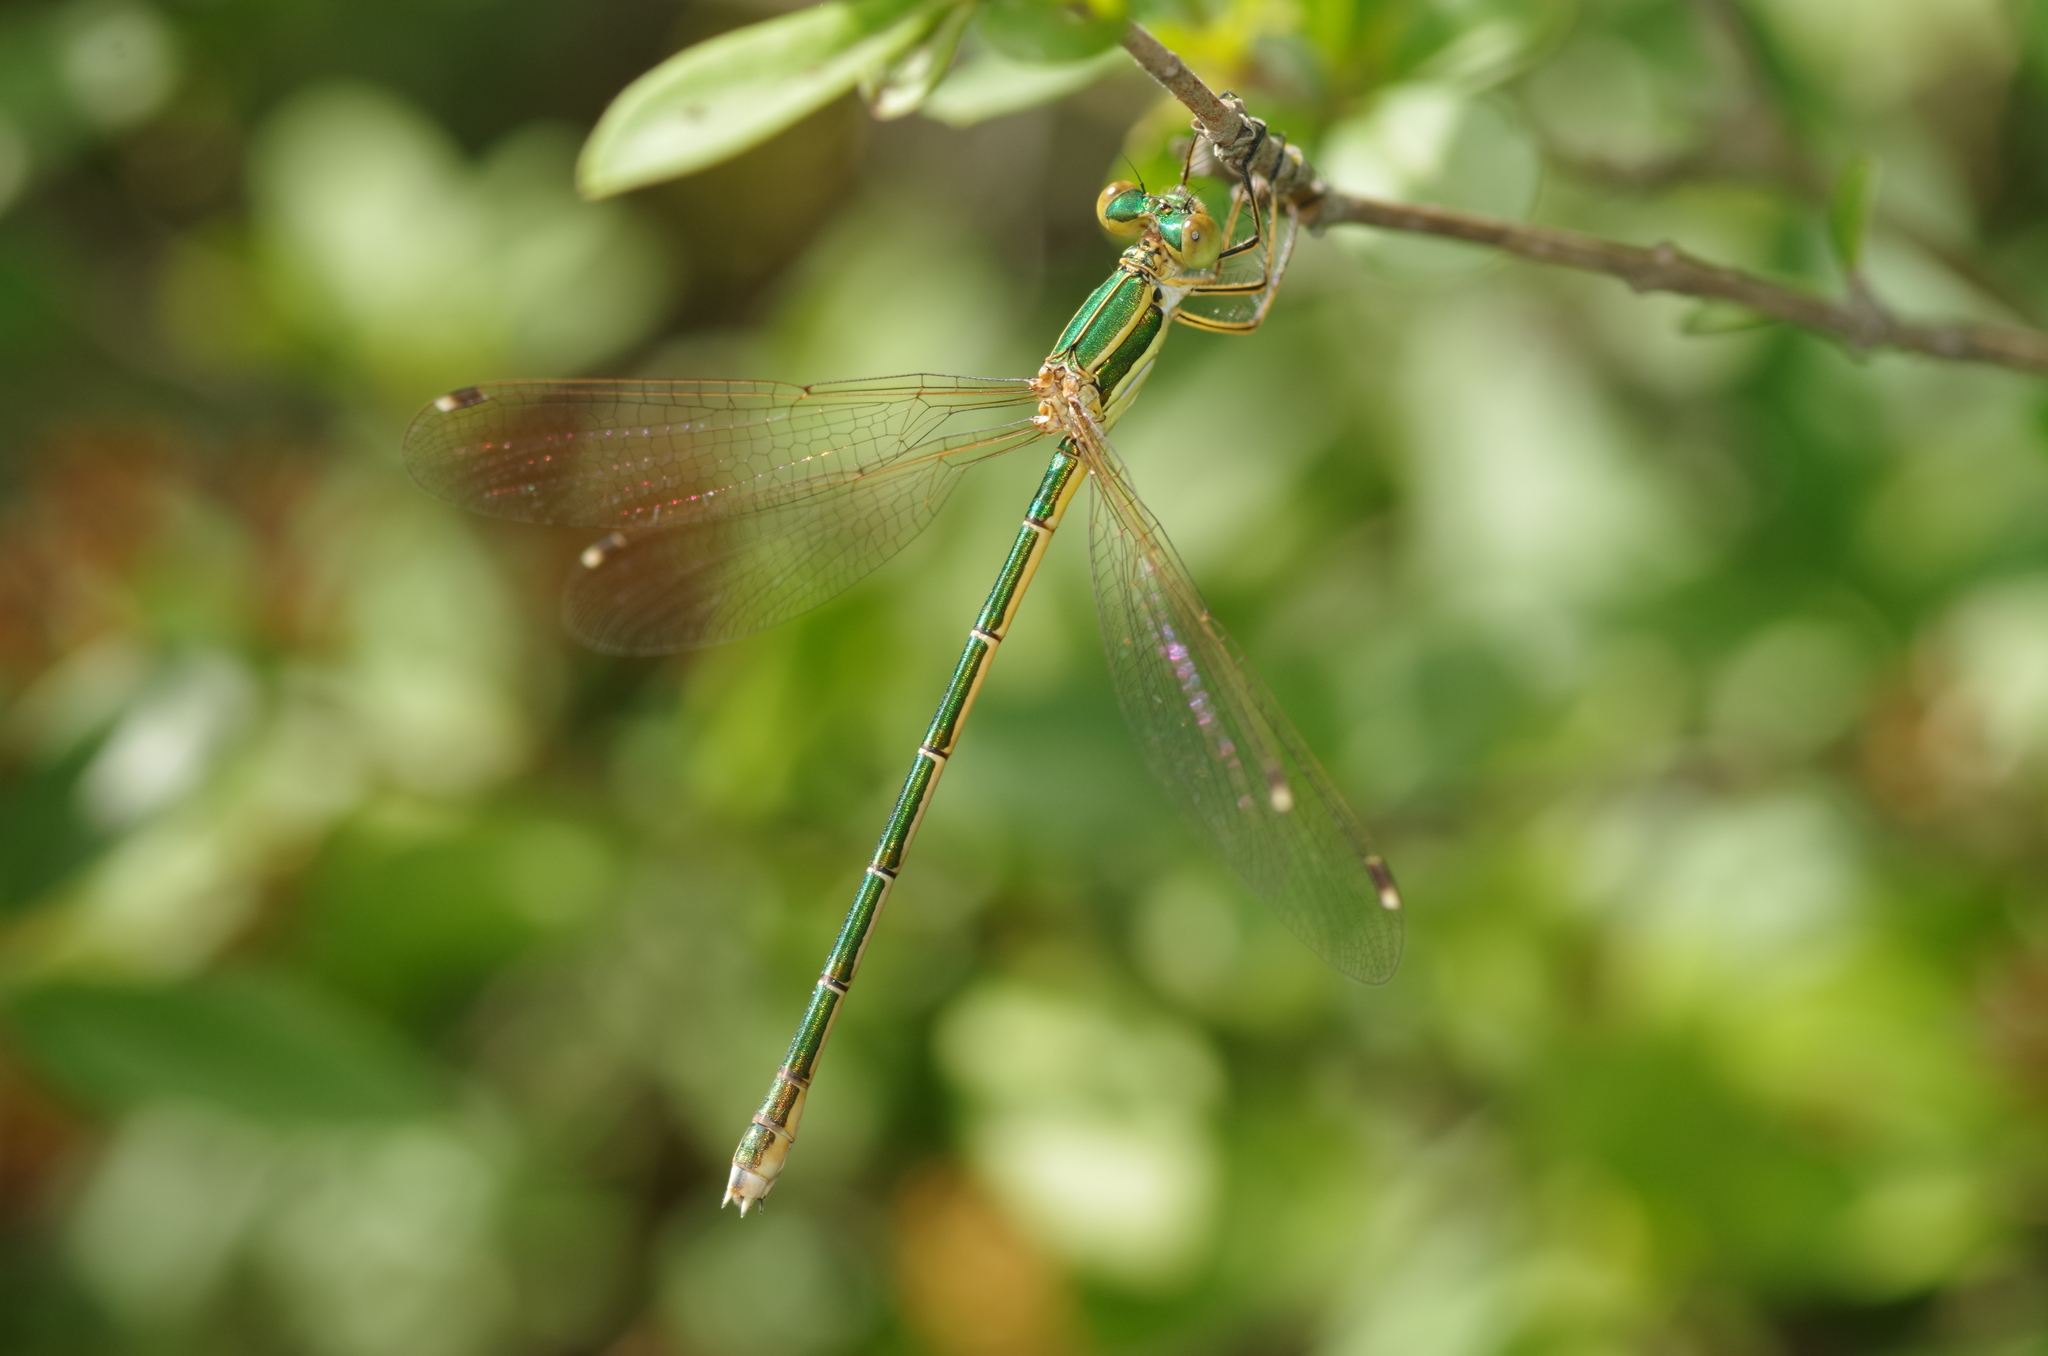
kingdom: Animalia
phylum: Arthropoda
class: Insecta
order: Odonata
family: Lestidae
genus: Lestes
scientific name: Lestes barbarus
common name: Migrant spreadwing
